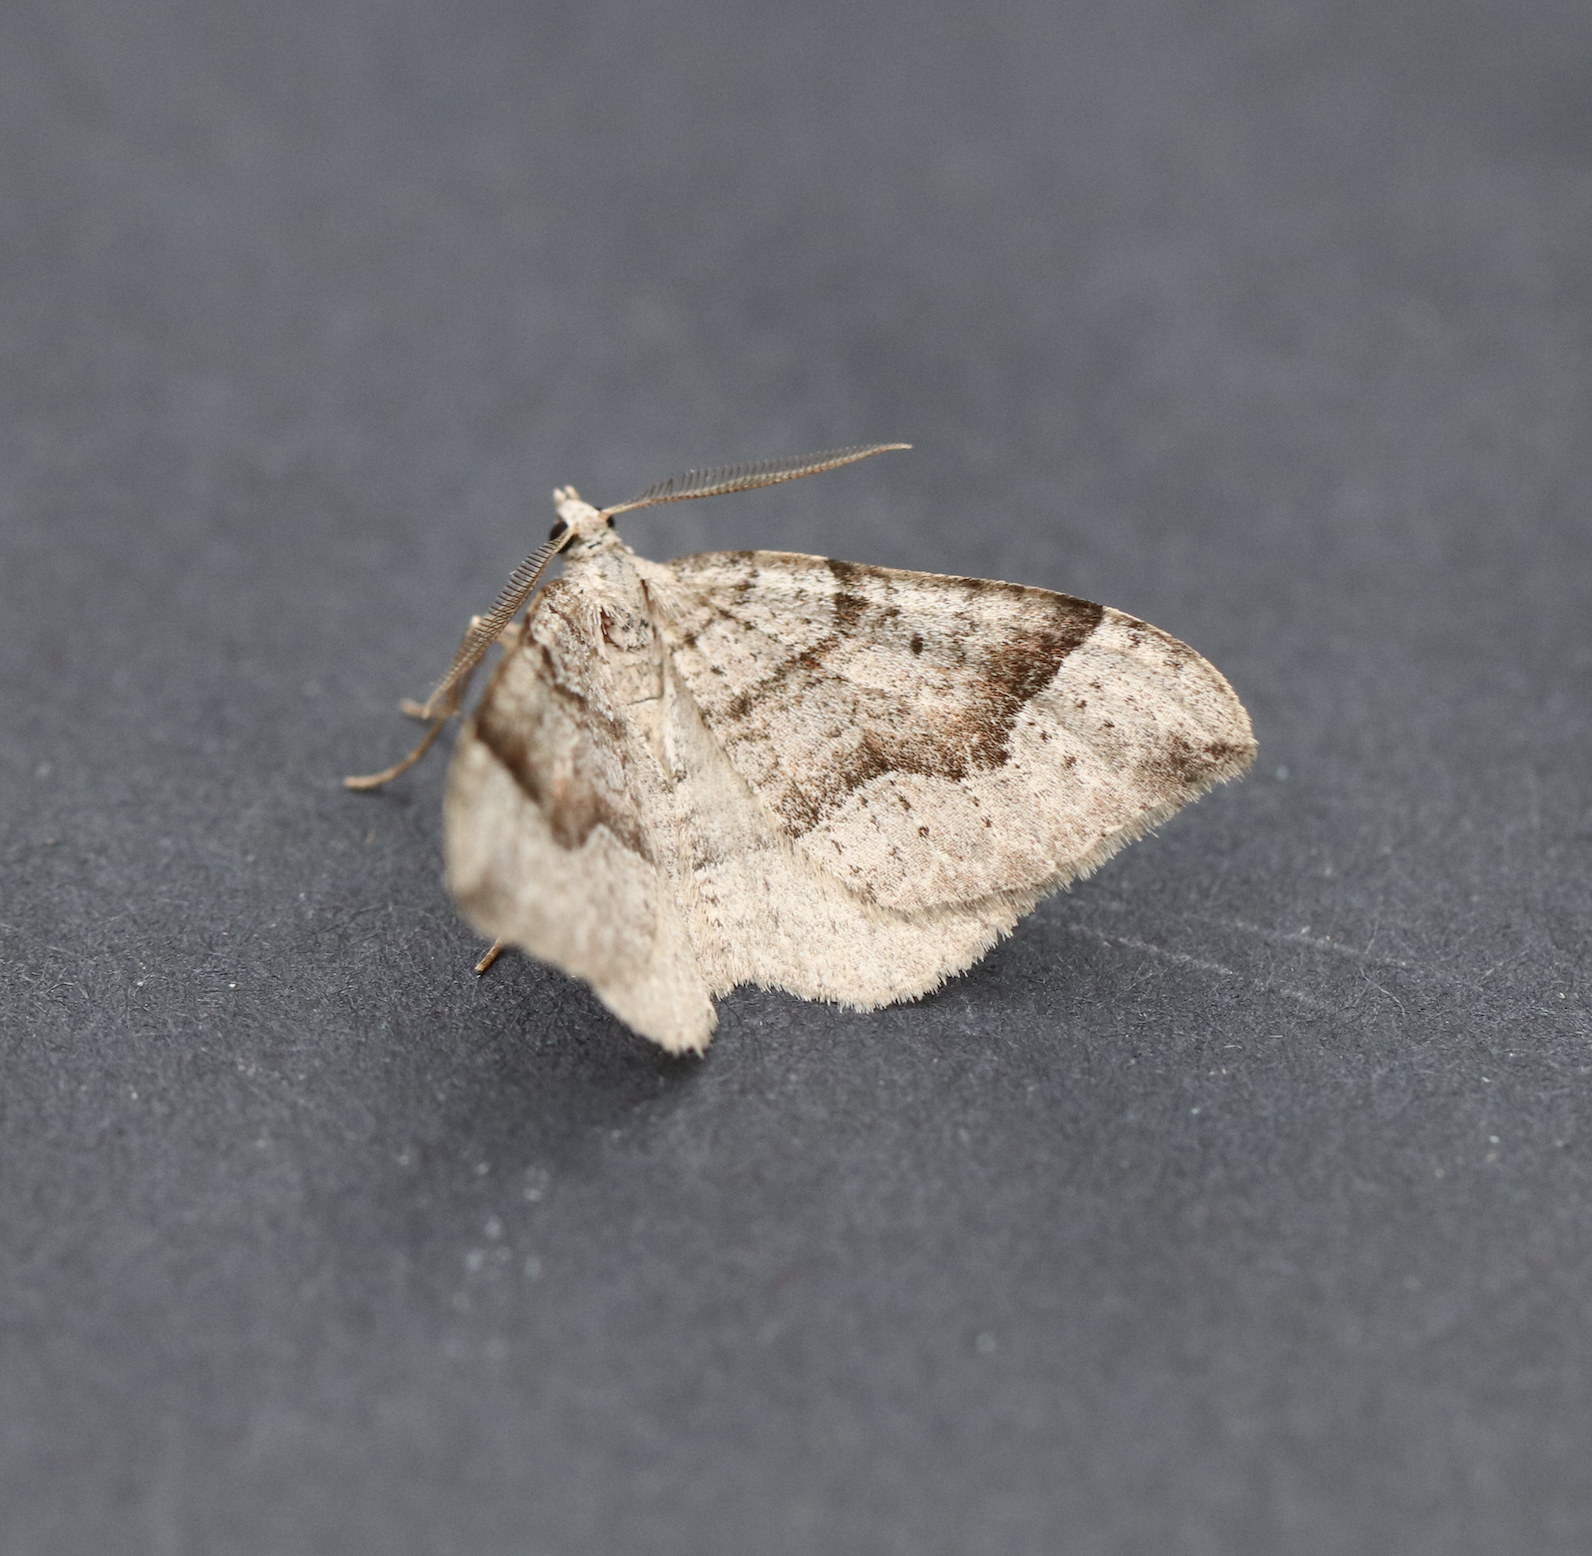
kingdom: Animalia
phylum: Arthropoda
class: Insecta
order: Lepidoptera
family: Geometridae
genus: Zenophleps
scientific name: Zenophleps alpinata
